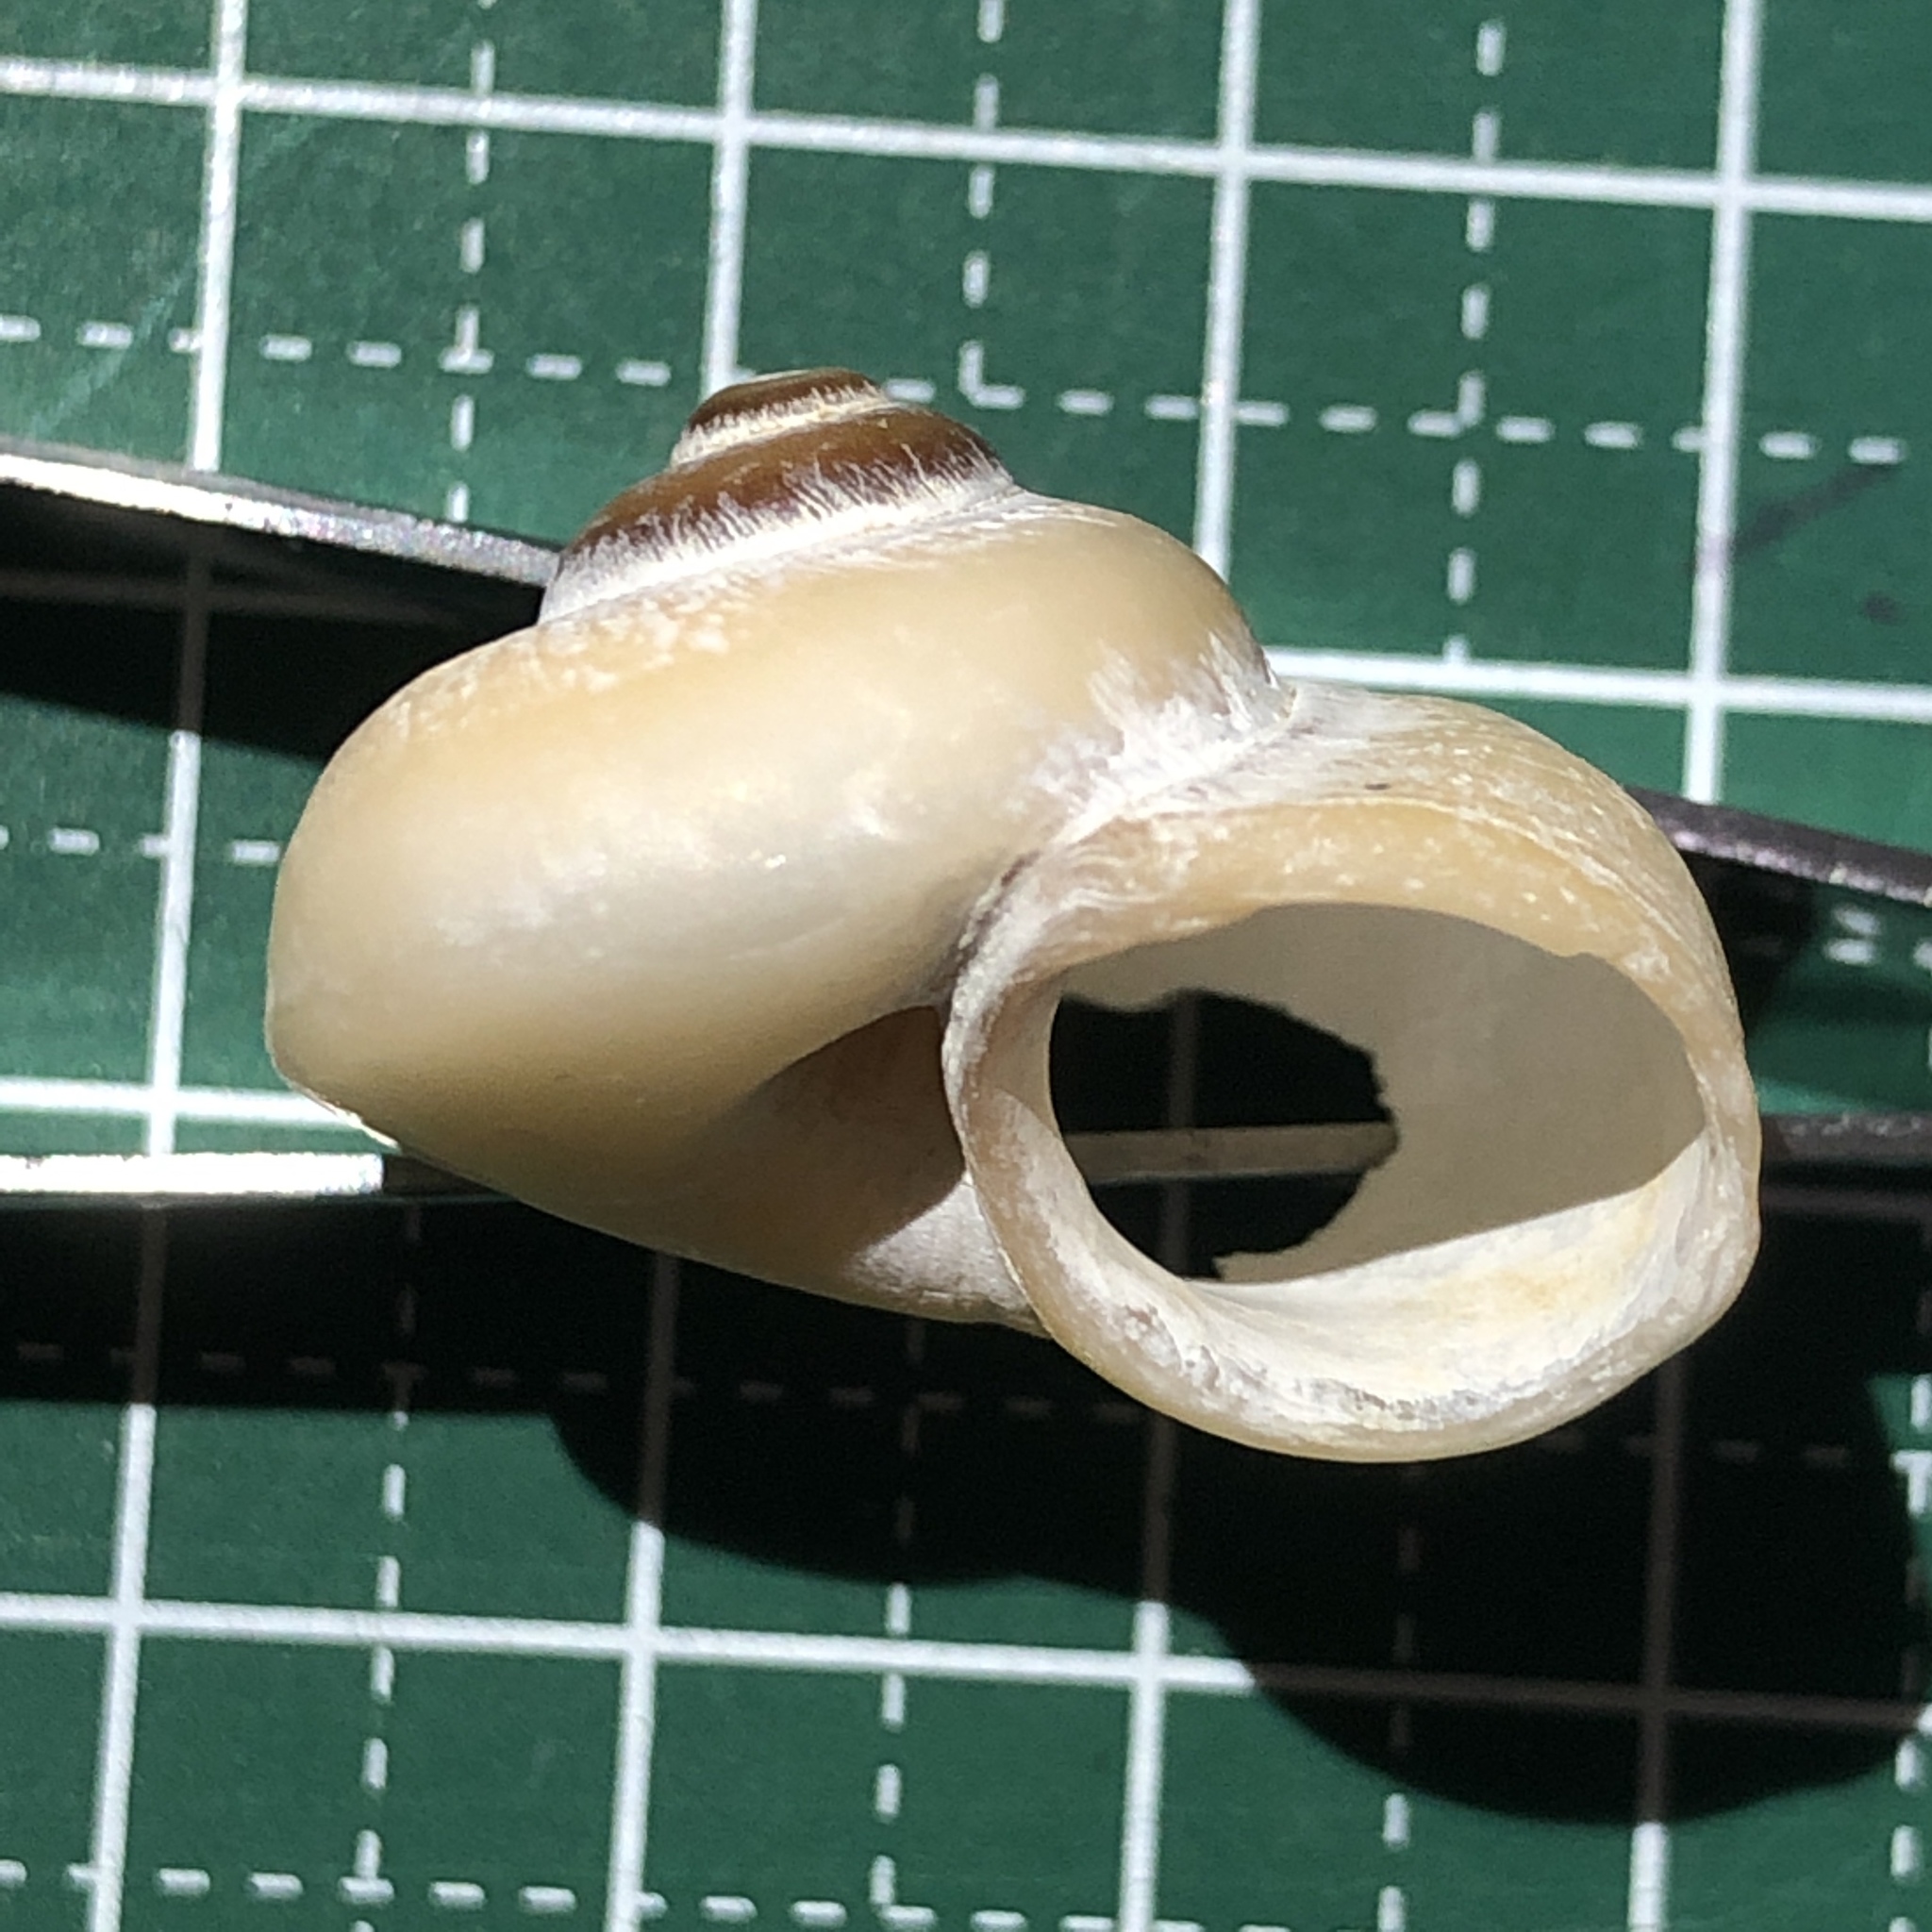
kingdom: Animalia
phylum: Mollusca
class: Gastropoda
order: Architaenioglossa
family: Cyclophoridae
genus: Cyclophorus
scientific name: Cyclophorus turgidus
